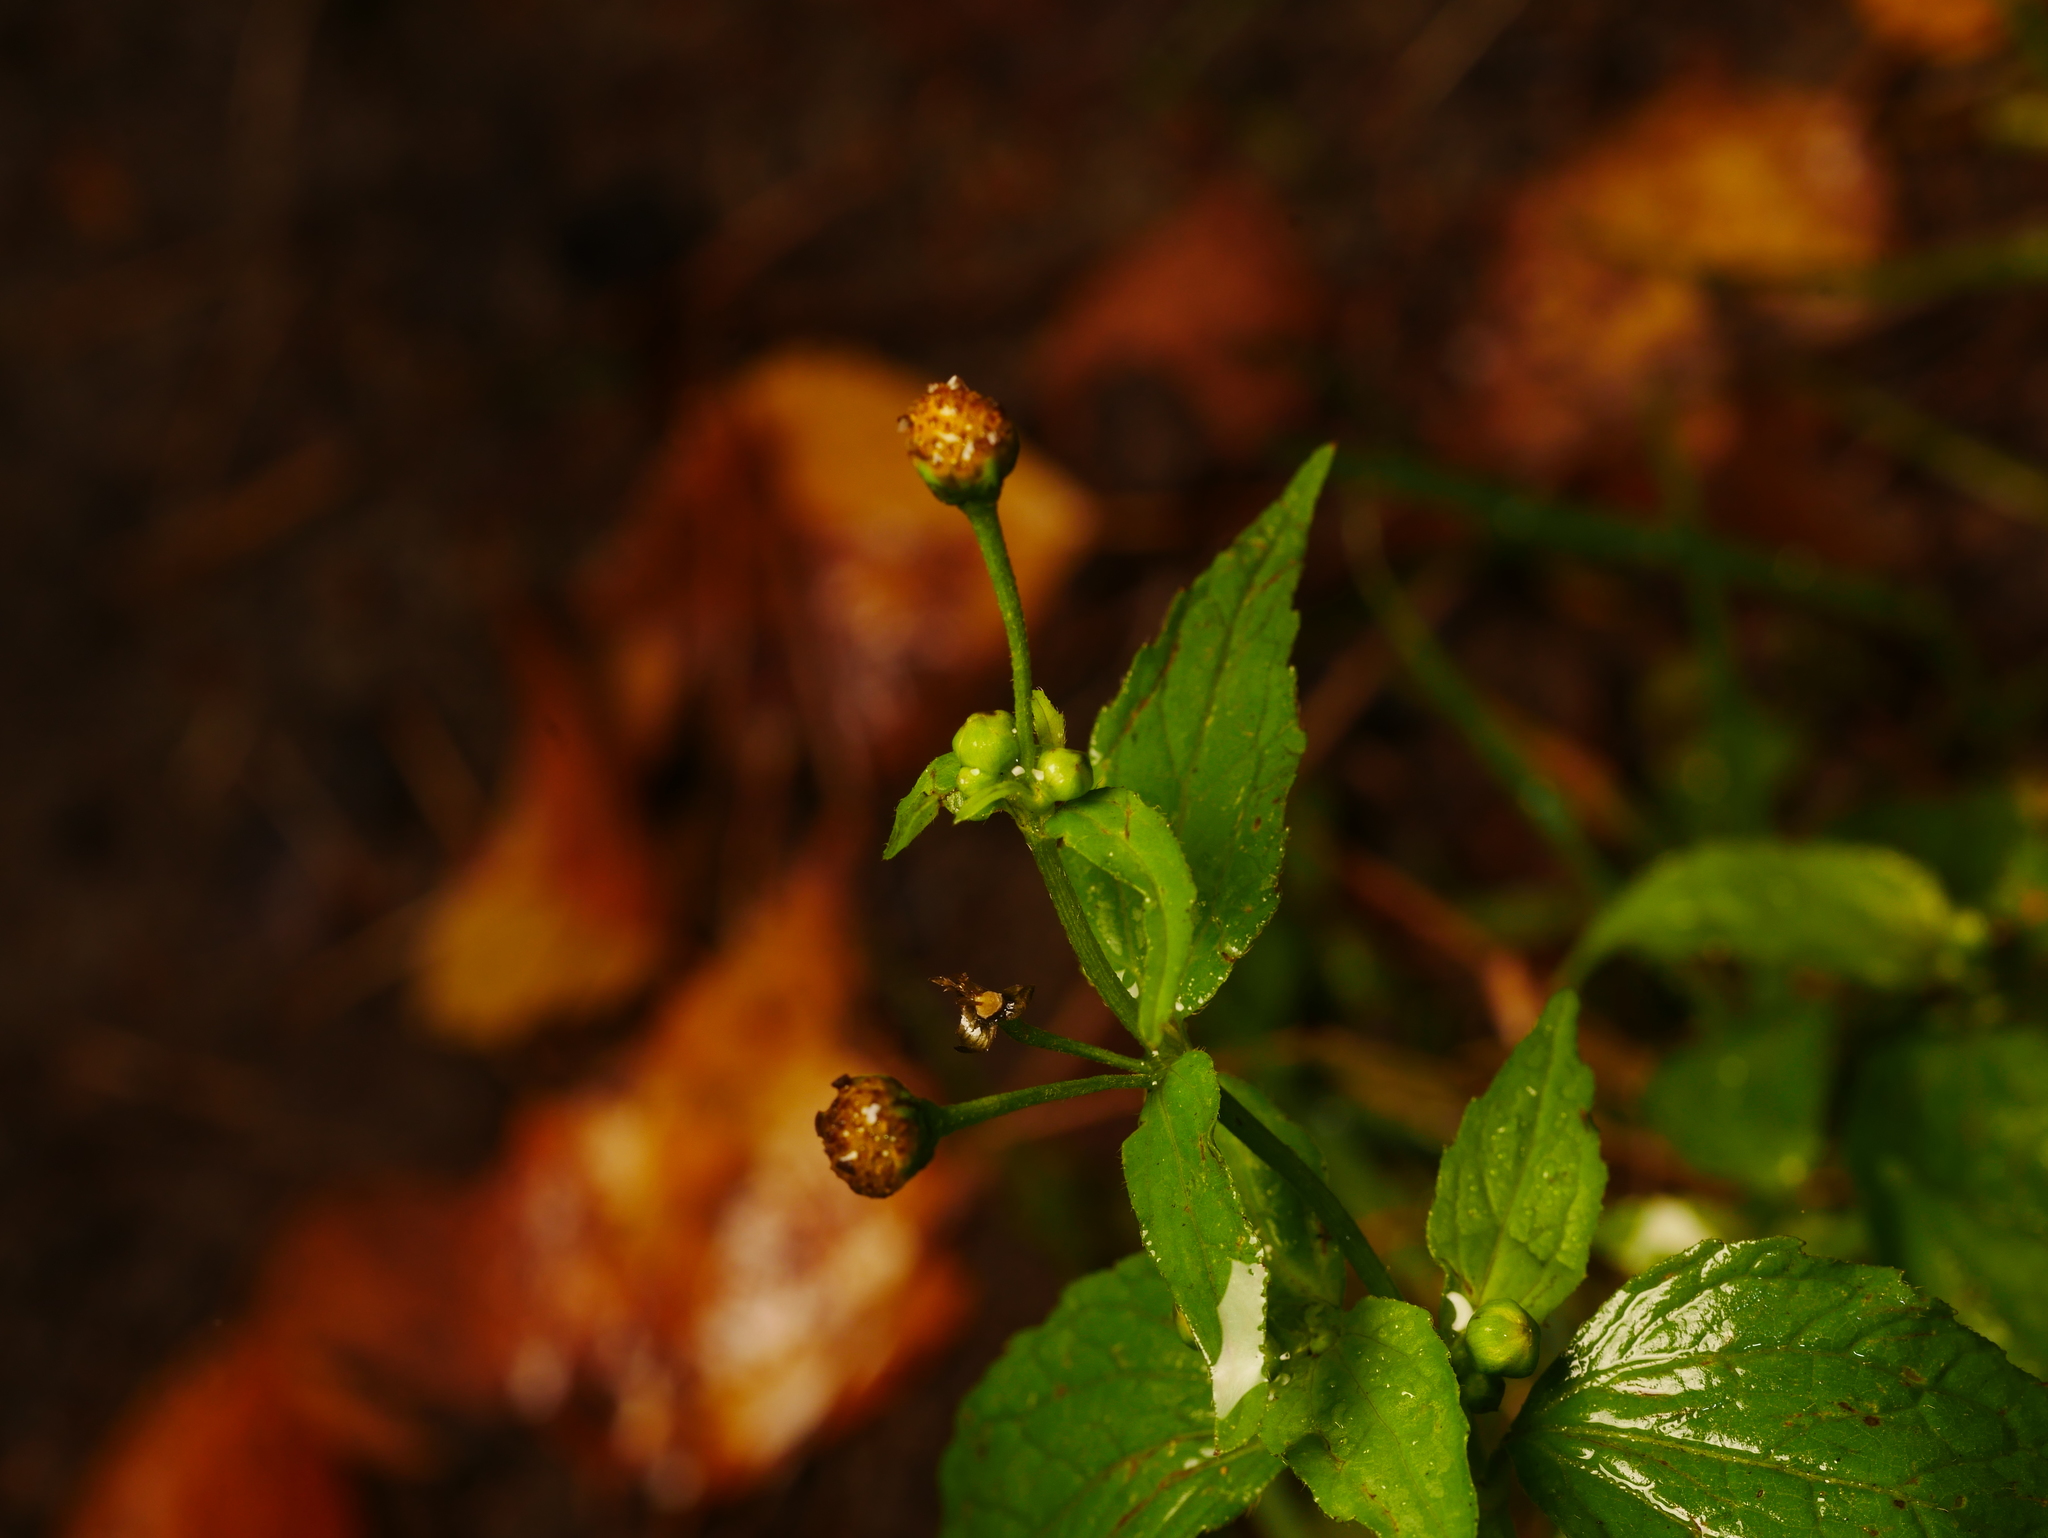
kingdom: Plantae
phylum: Tracheophyta
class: Magnoliopsida
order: Asterales
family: Asteraceae
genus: Galinsoga
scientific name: Galinsoga parviflora
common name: Gallant soldier
